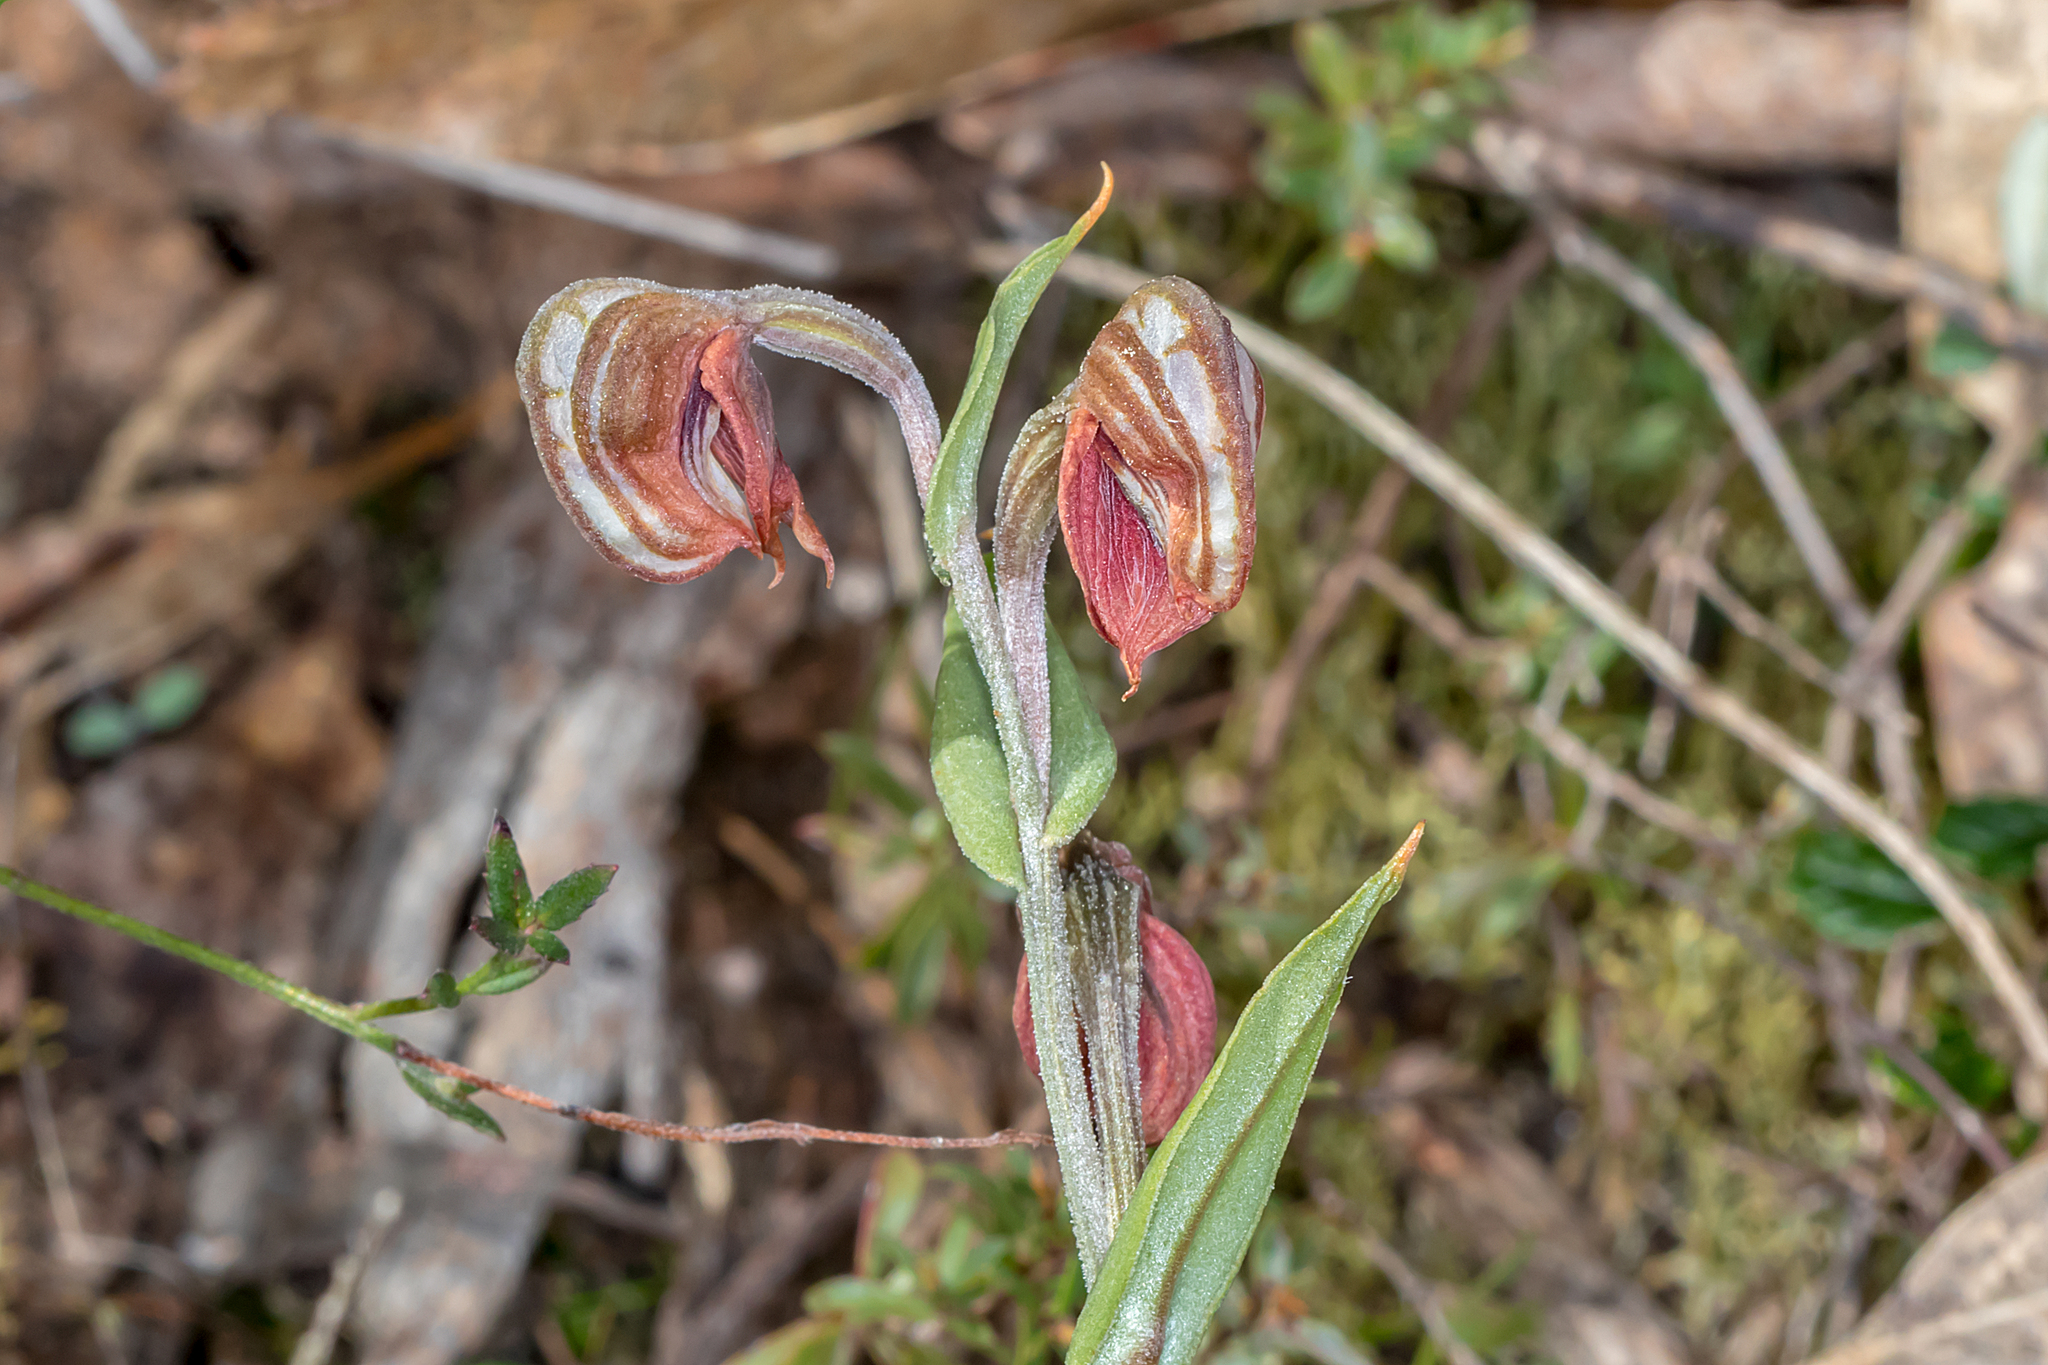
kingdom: Plantae
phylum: Tracheophyta
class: Liliopsida
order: Asparagales
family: Orchidaceae
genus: Pterostylis
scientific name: Pterostylis sanguinea
